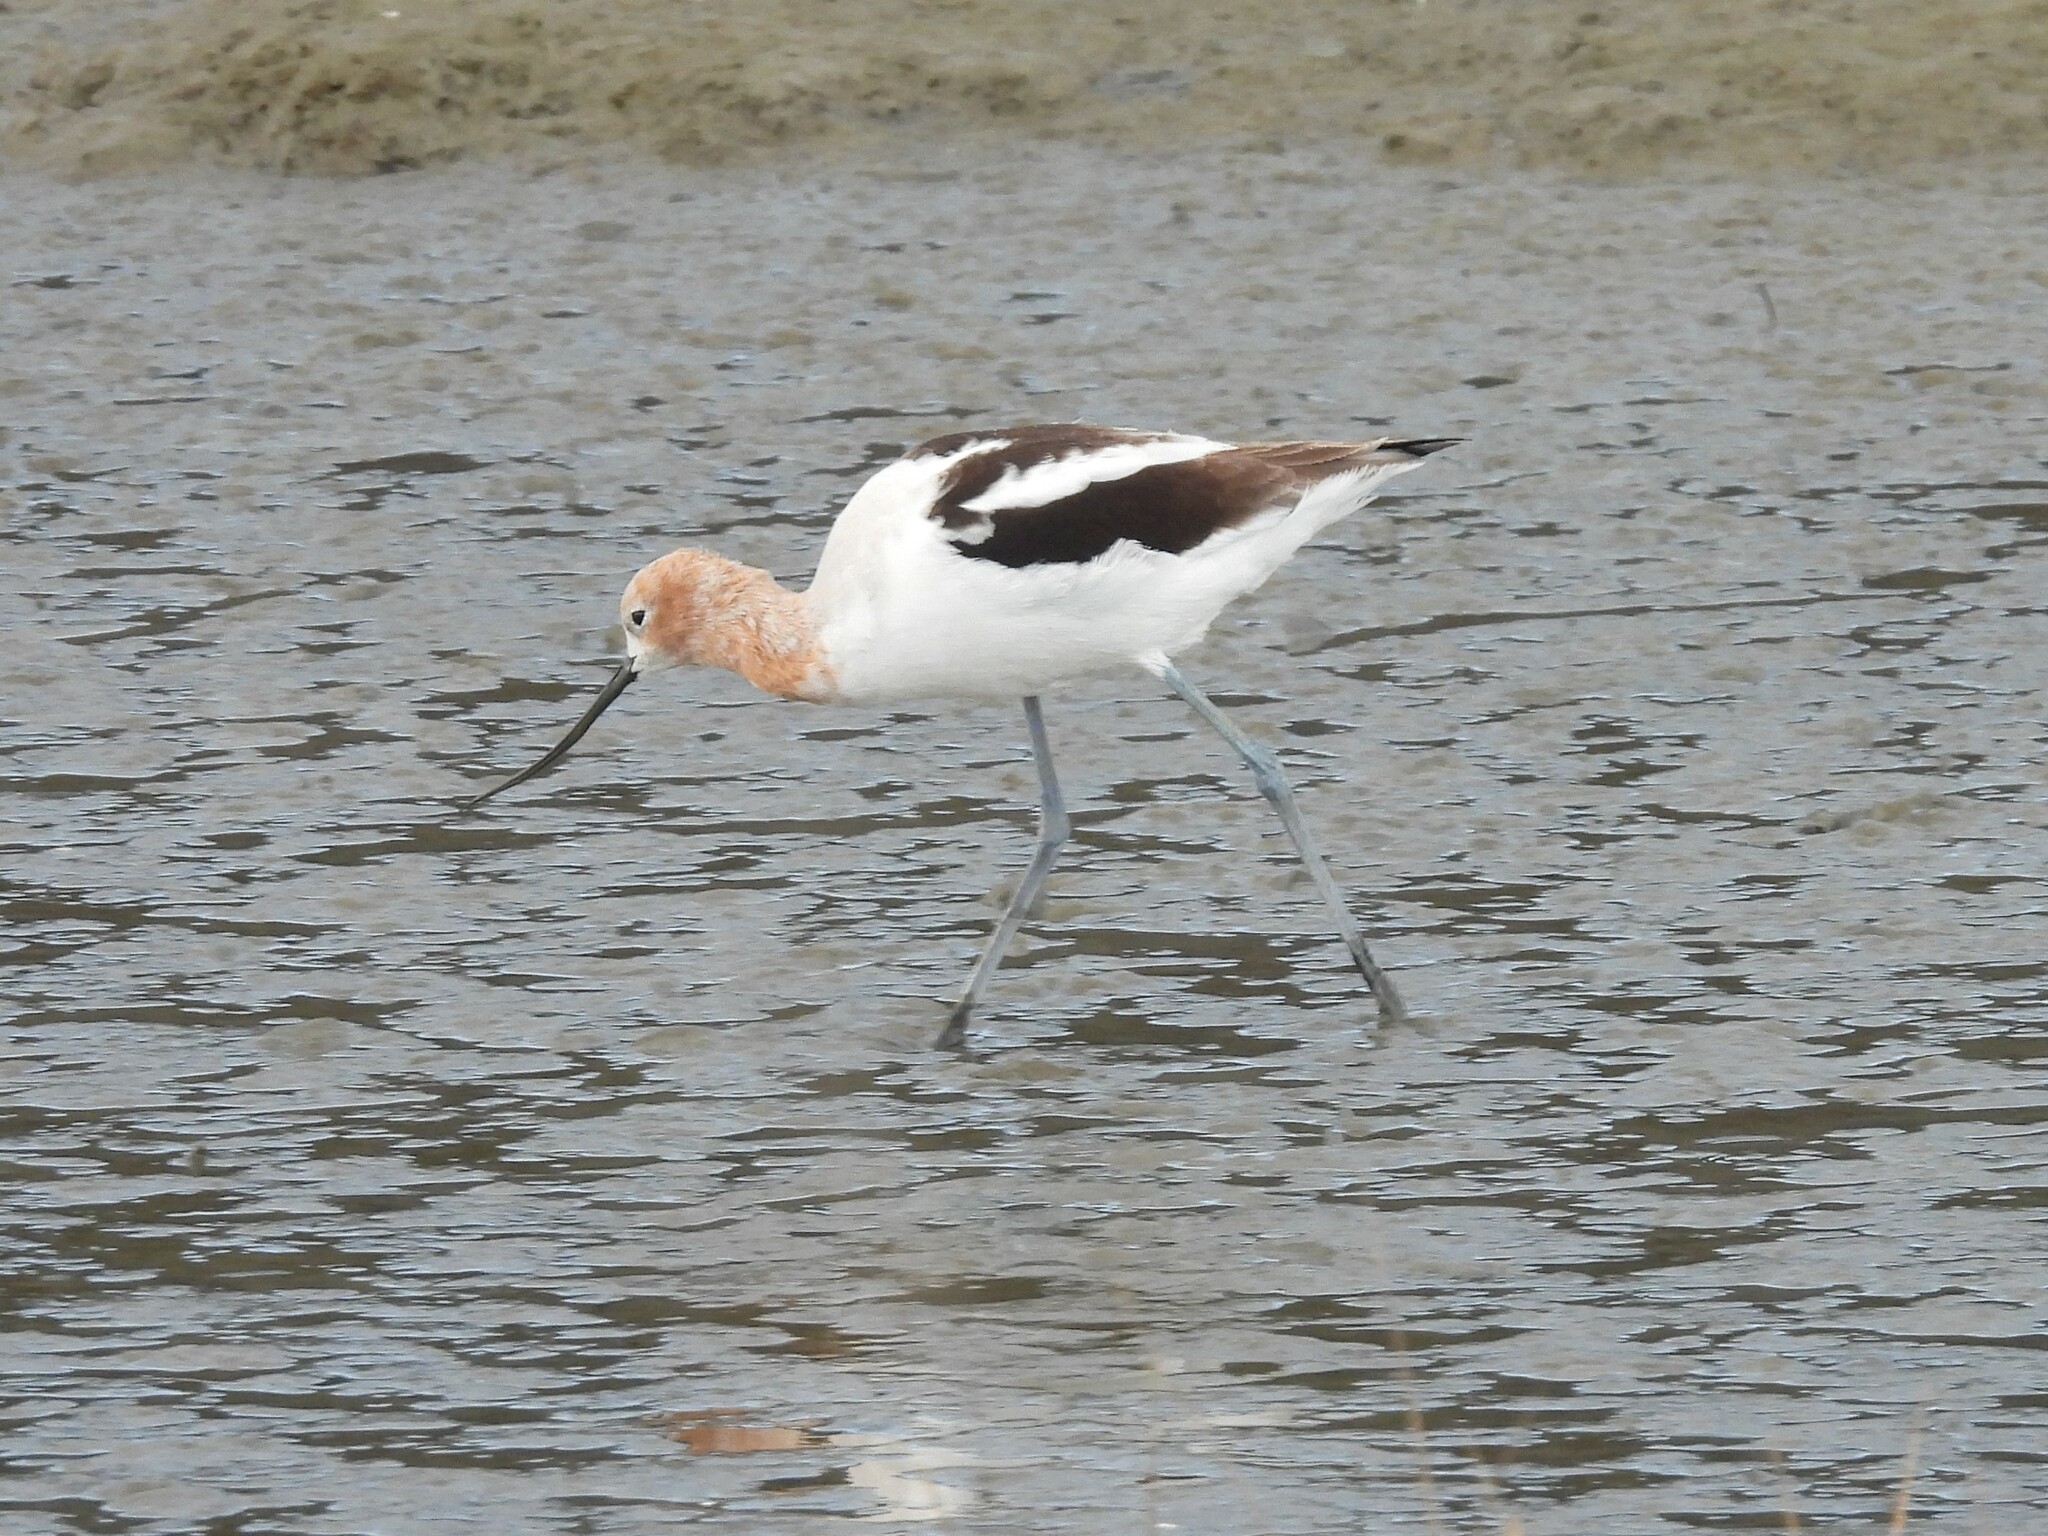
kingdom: Animalia
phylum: Chordata
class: Aves
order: Charadriiformes
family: Recurvirostridae
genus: Recurvirostra
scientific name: Recurvirostra americana
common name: American avocet
